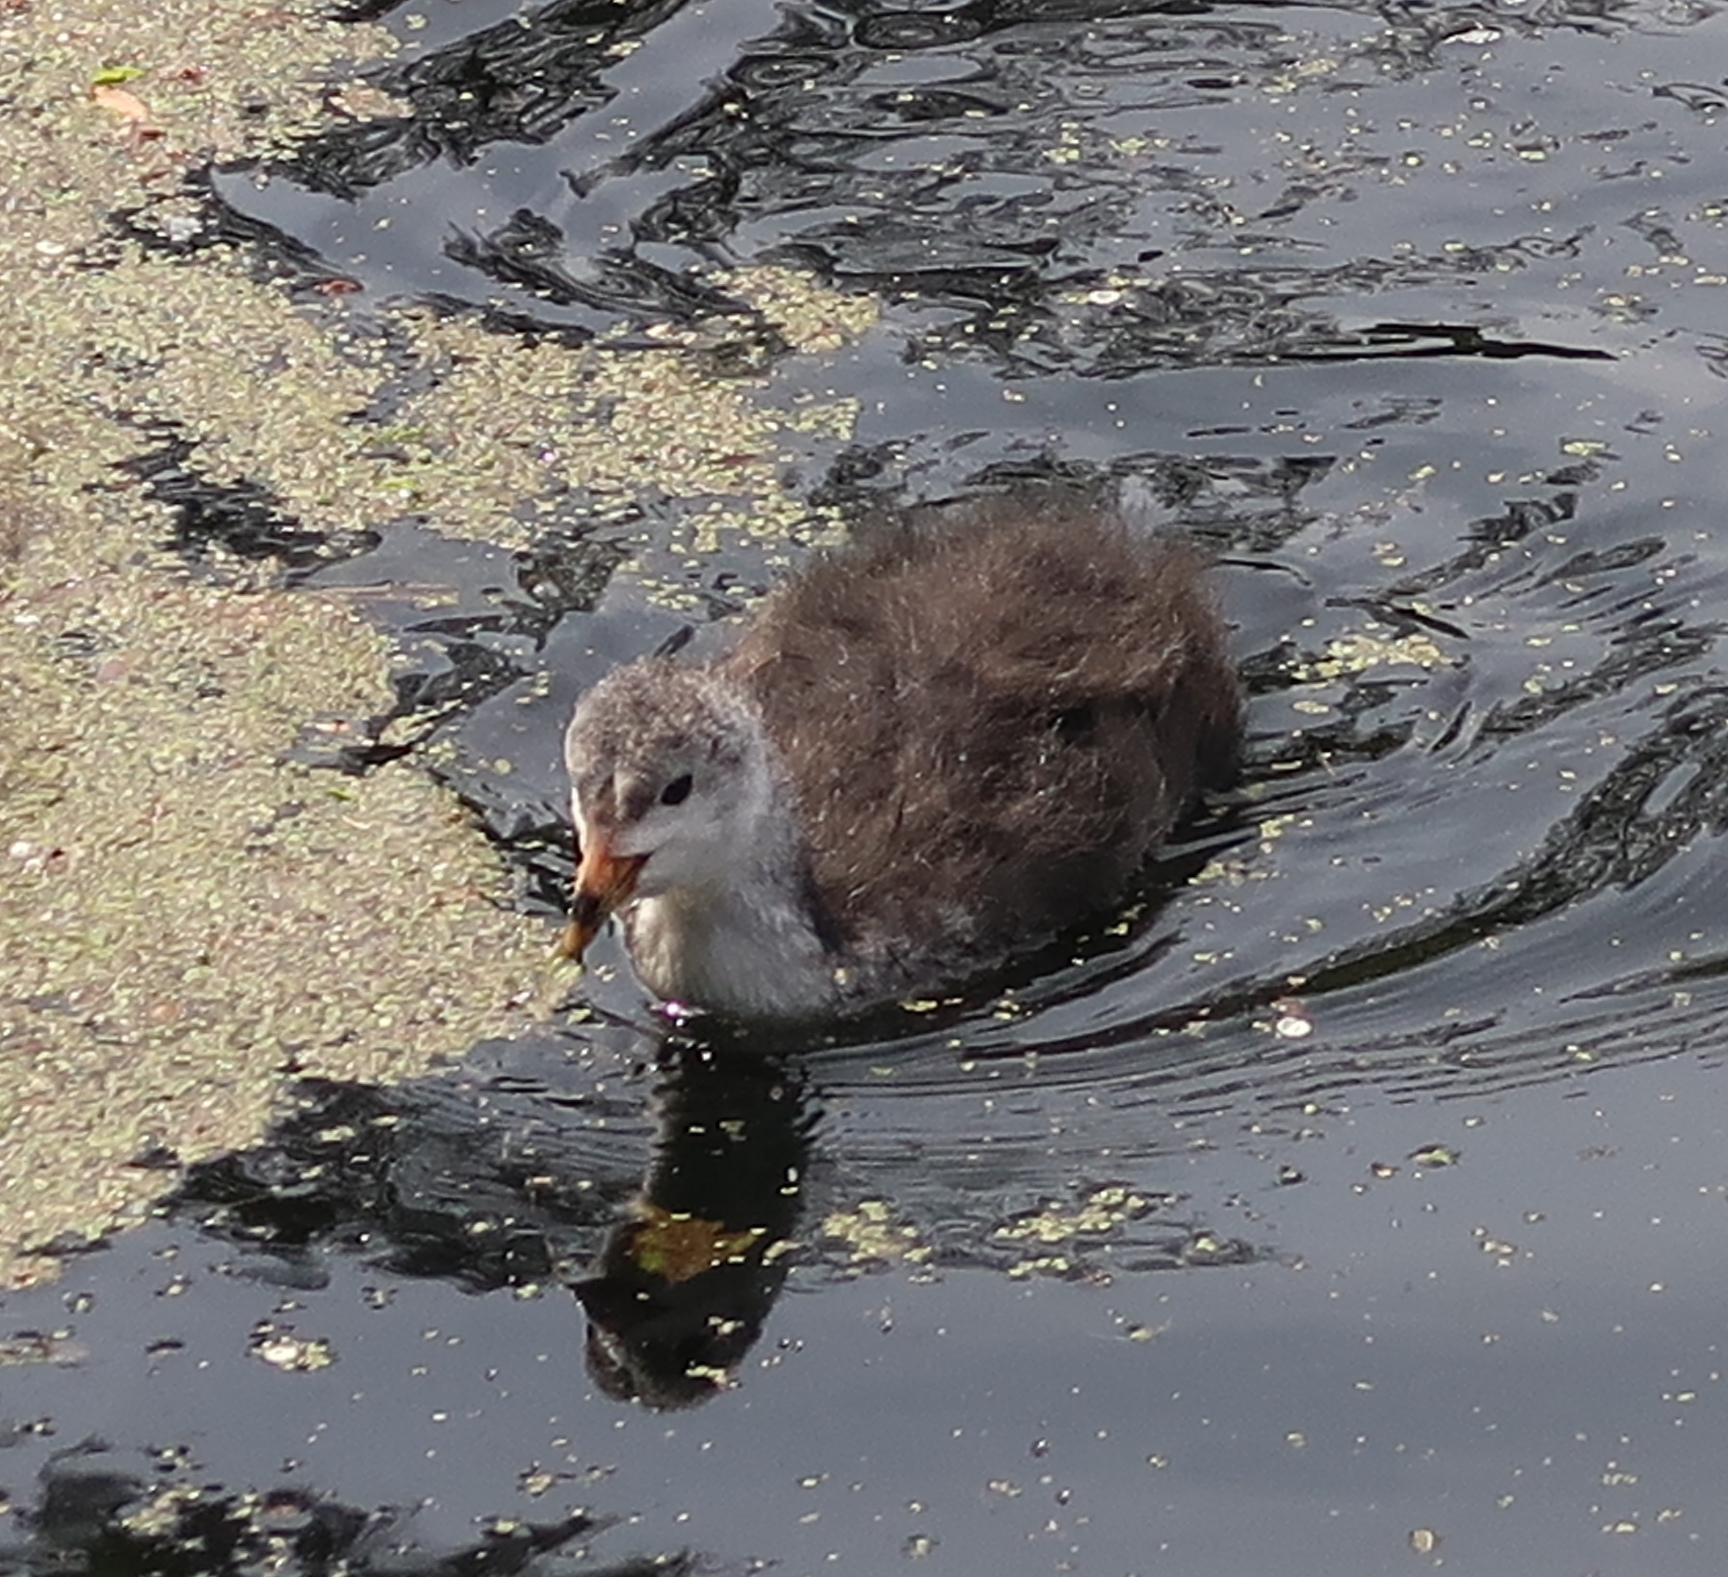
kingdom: Animalia
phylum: Chordata
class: Aves
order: Gruiformes
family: Rallidae
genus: Fulica
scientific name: Fulica atra
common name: Eurasian coot
